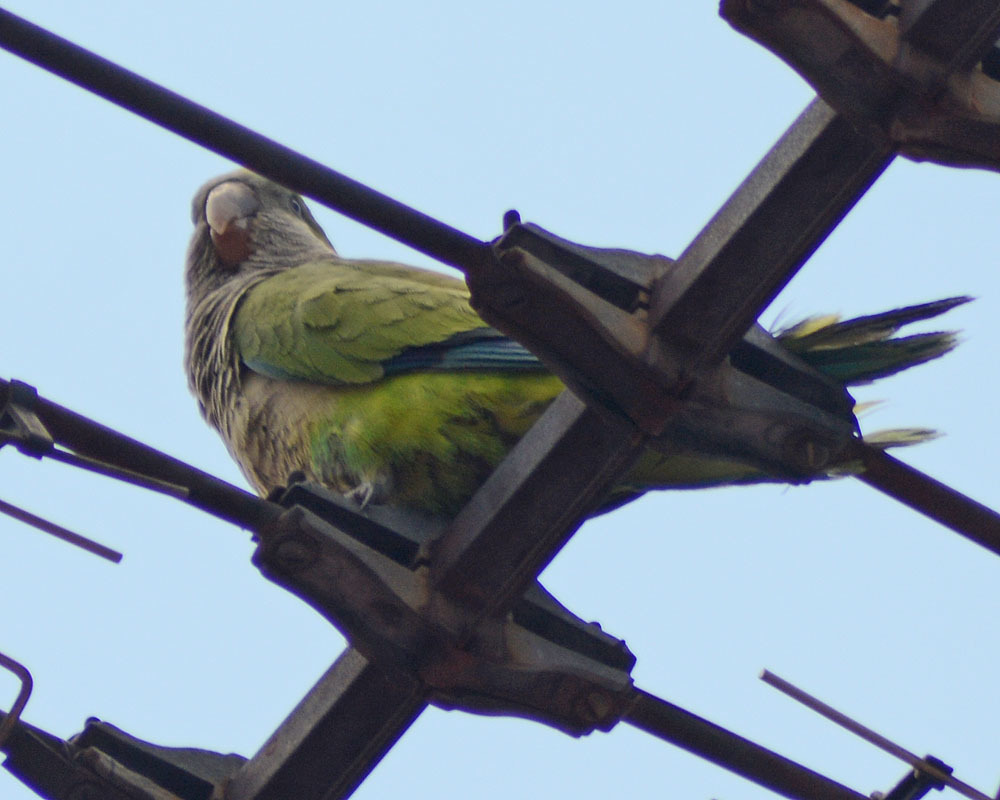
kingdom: Animalia
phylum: Chordata
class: Aves
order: Psittaciformes
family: Psittacidae
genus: Myiopsitta
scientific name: Myiopsitta monachus
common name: Monk parakeet
